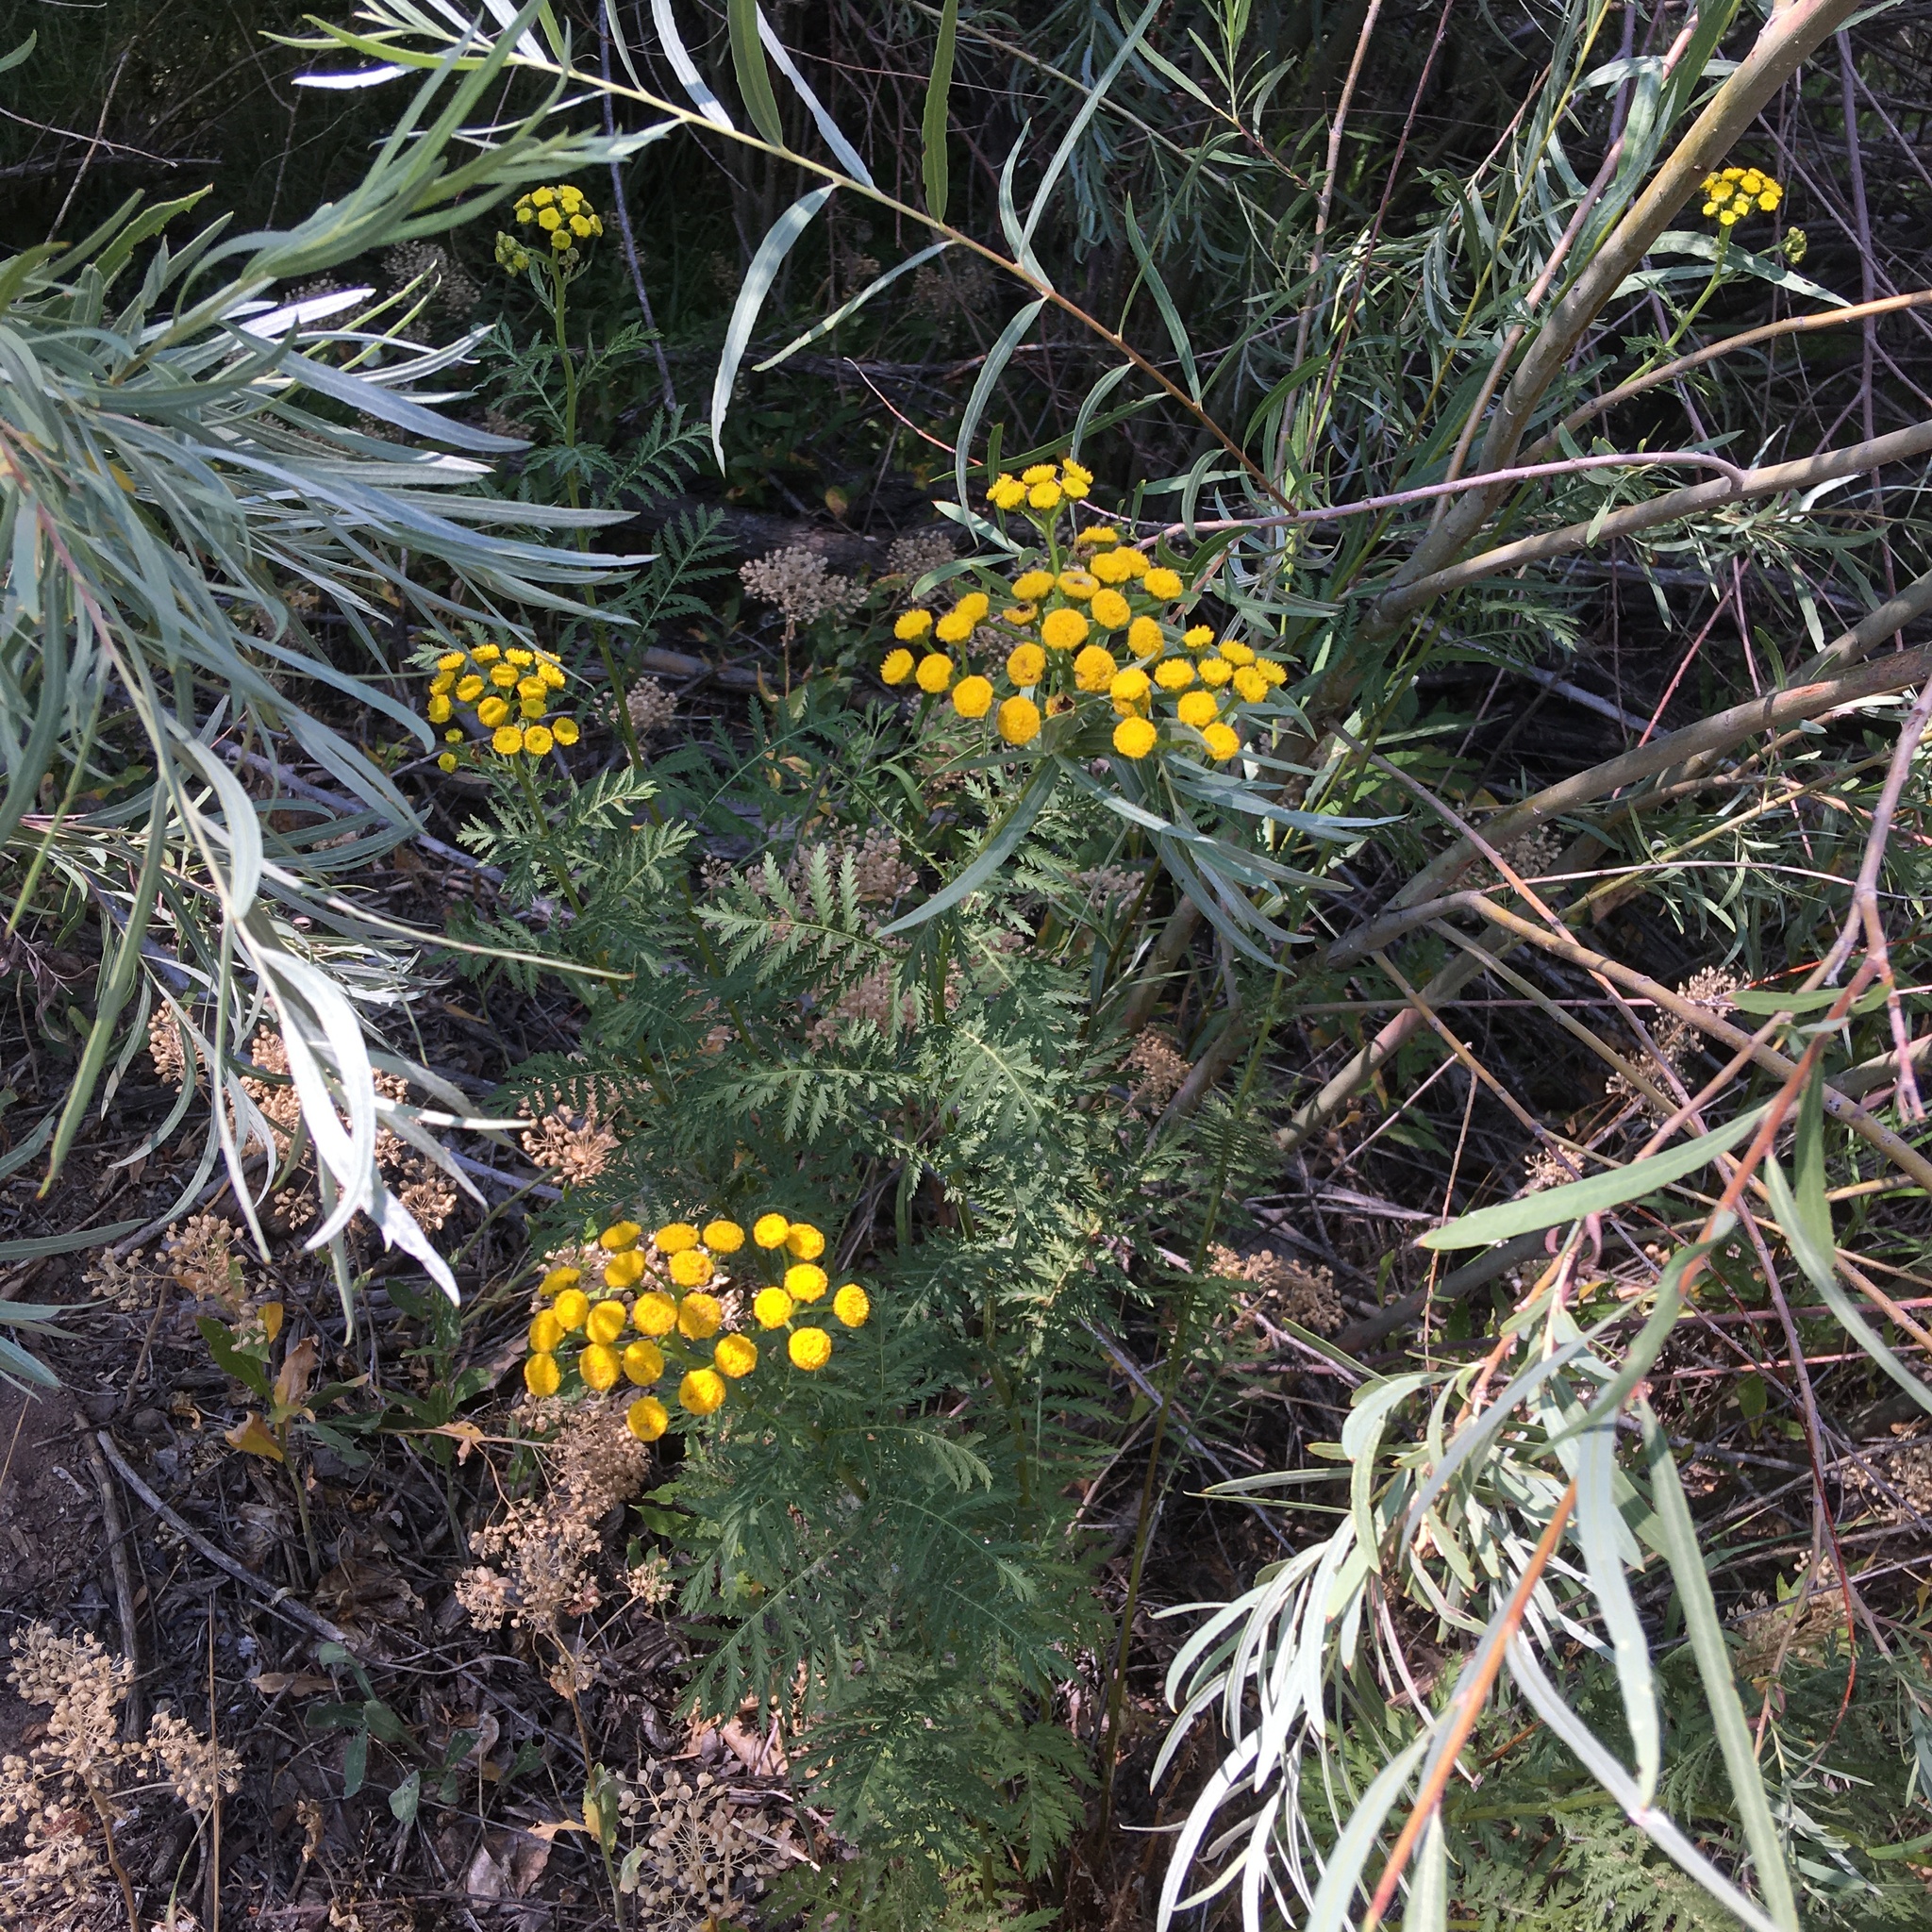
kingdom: Plantae
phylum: Tracheophyta
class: Magnoliopsida
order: Asterales
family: Asteraceae
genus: Tanacetum
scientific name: Tanacetum vulgare
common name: Common tansy
